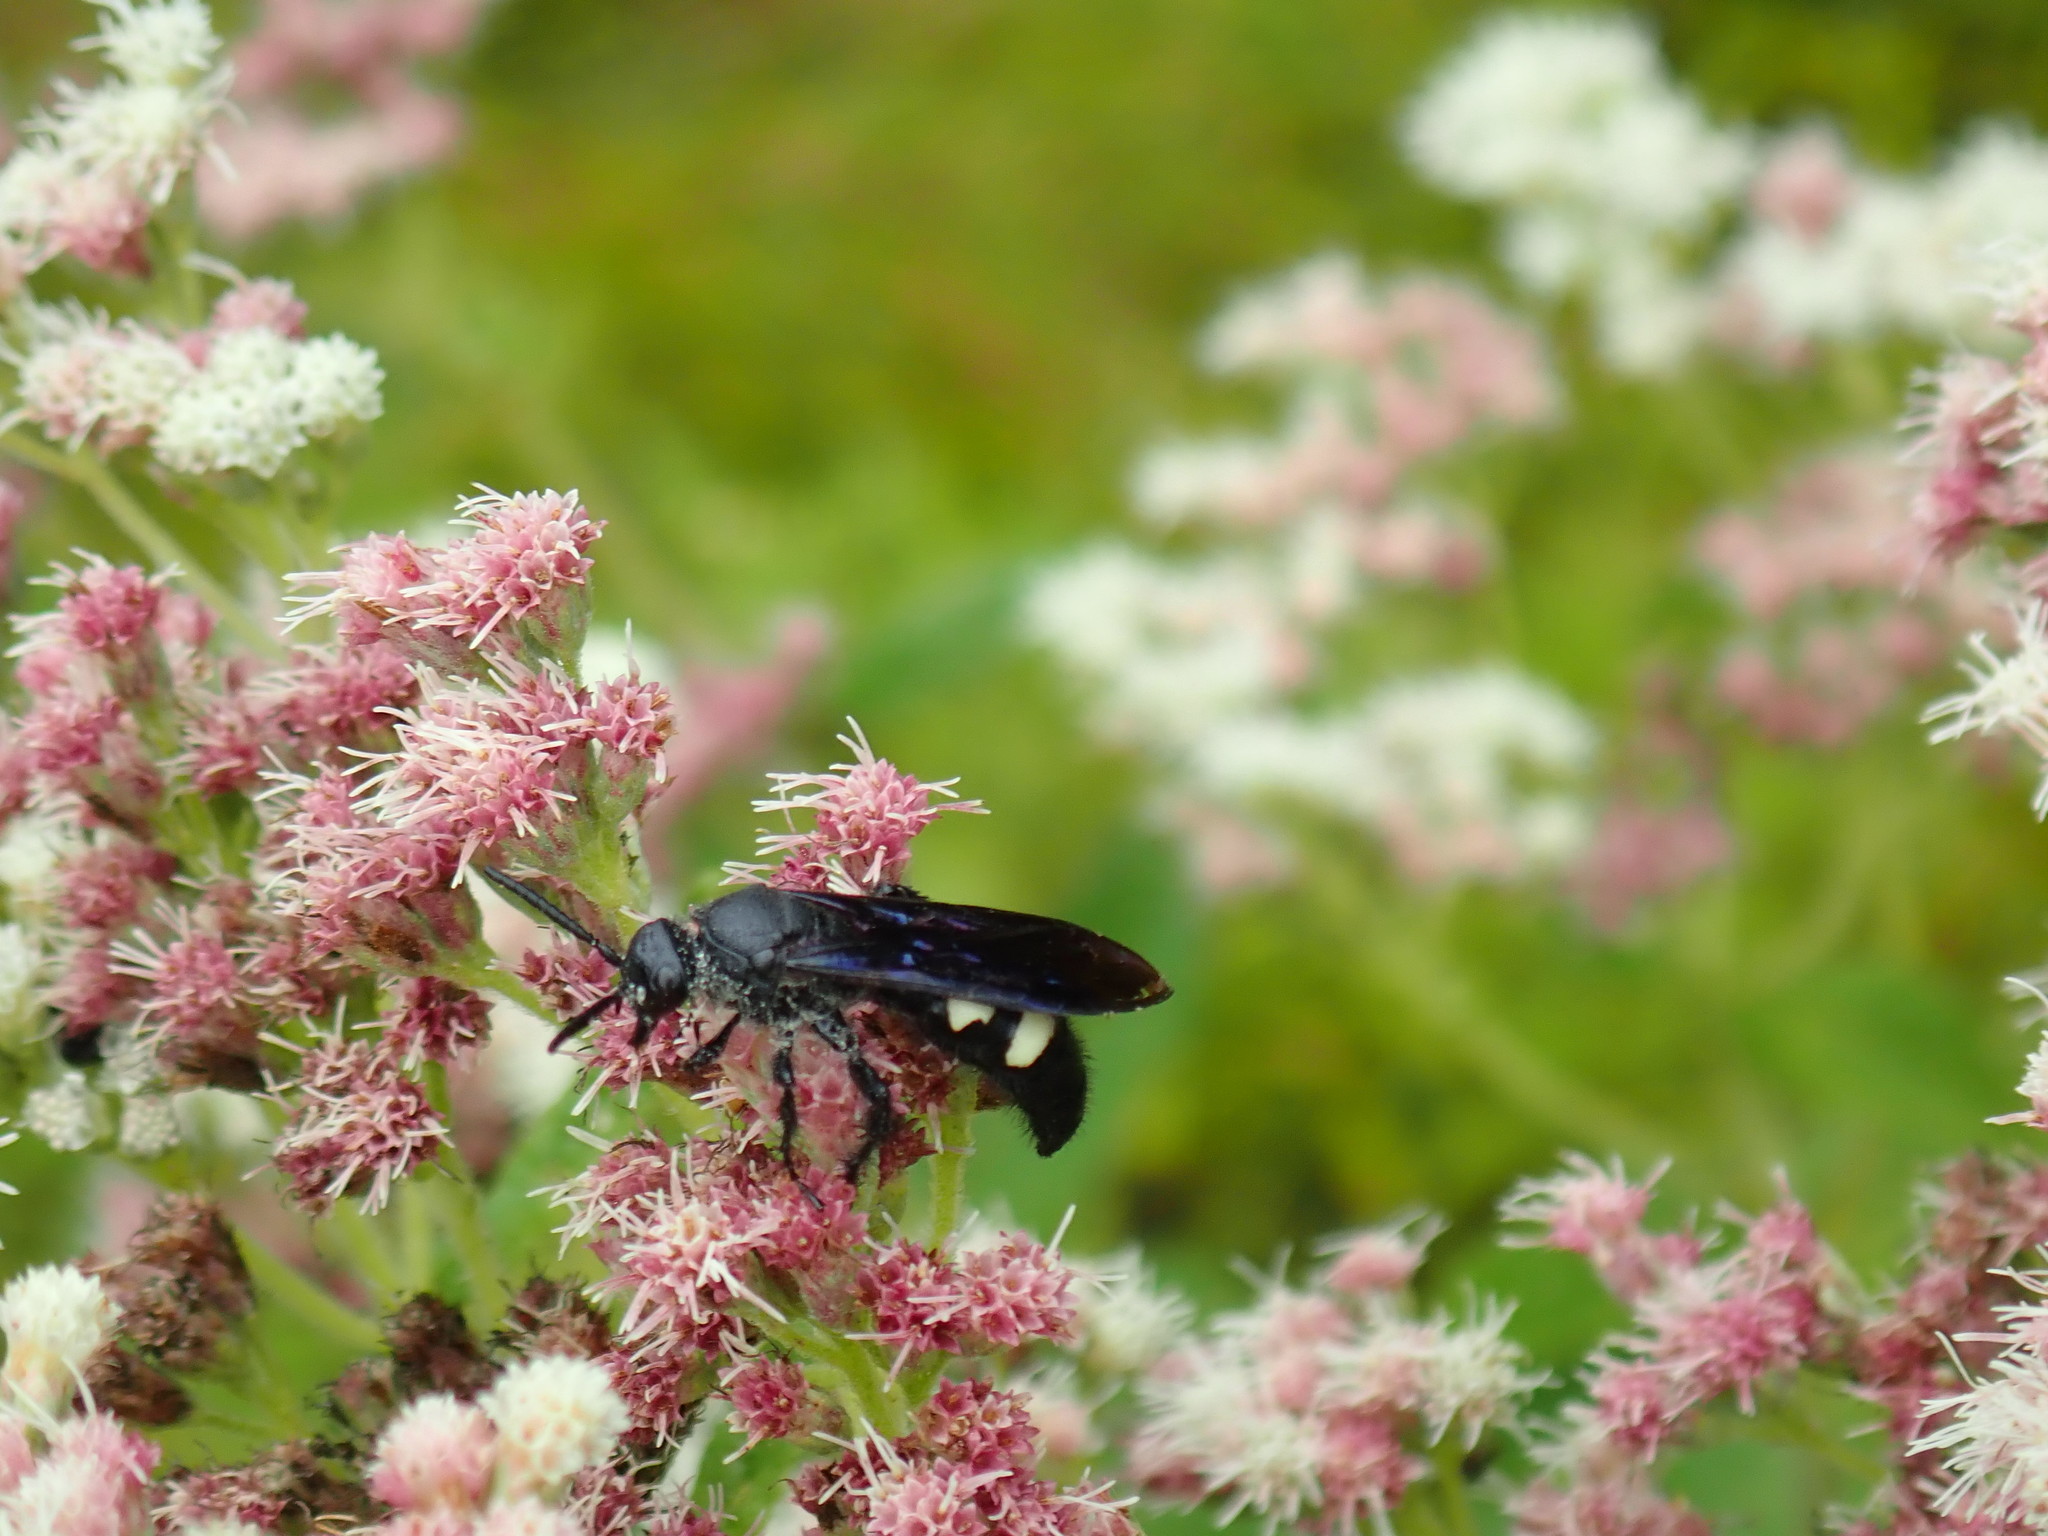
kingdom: Animalia
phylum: Arthropoda
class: Insecta
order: Hymenoptera
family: Scoliidae
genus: Scolia
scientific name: Scolia bicincta
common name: Double-banded scoliid wasp
